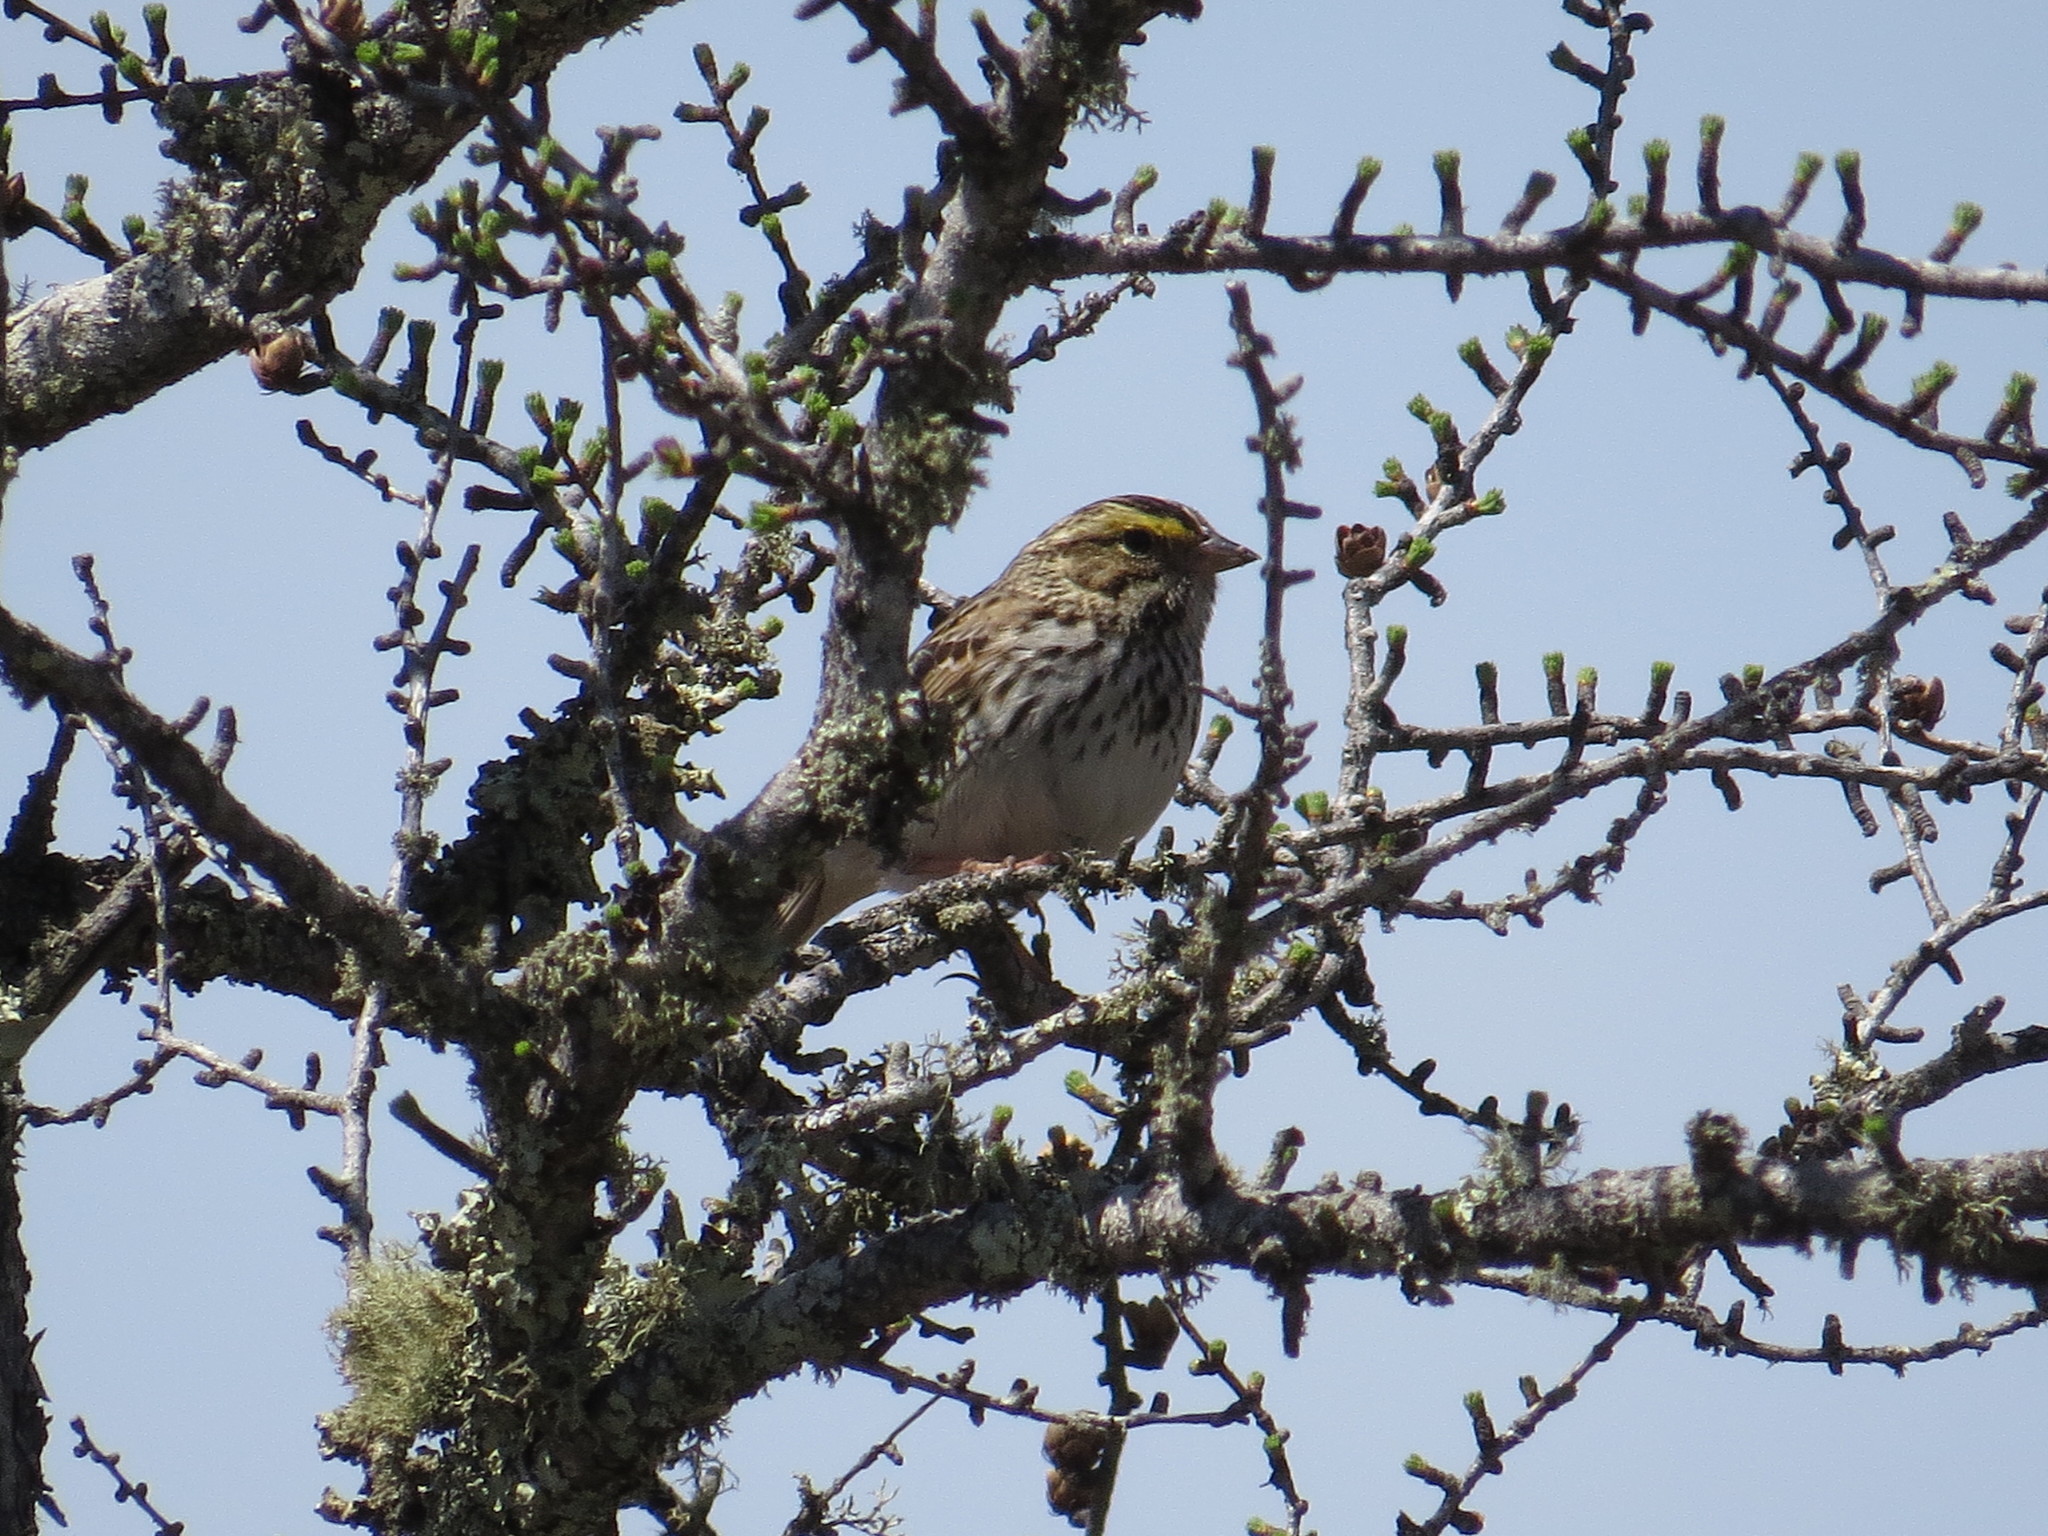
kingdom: Animalia
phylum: Chordata
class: Aves
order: Passeriformes
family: Passerellidae
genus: Passerculus
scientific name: Passerculus sandwichensis
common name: Savannah sparrow
